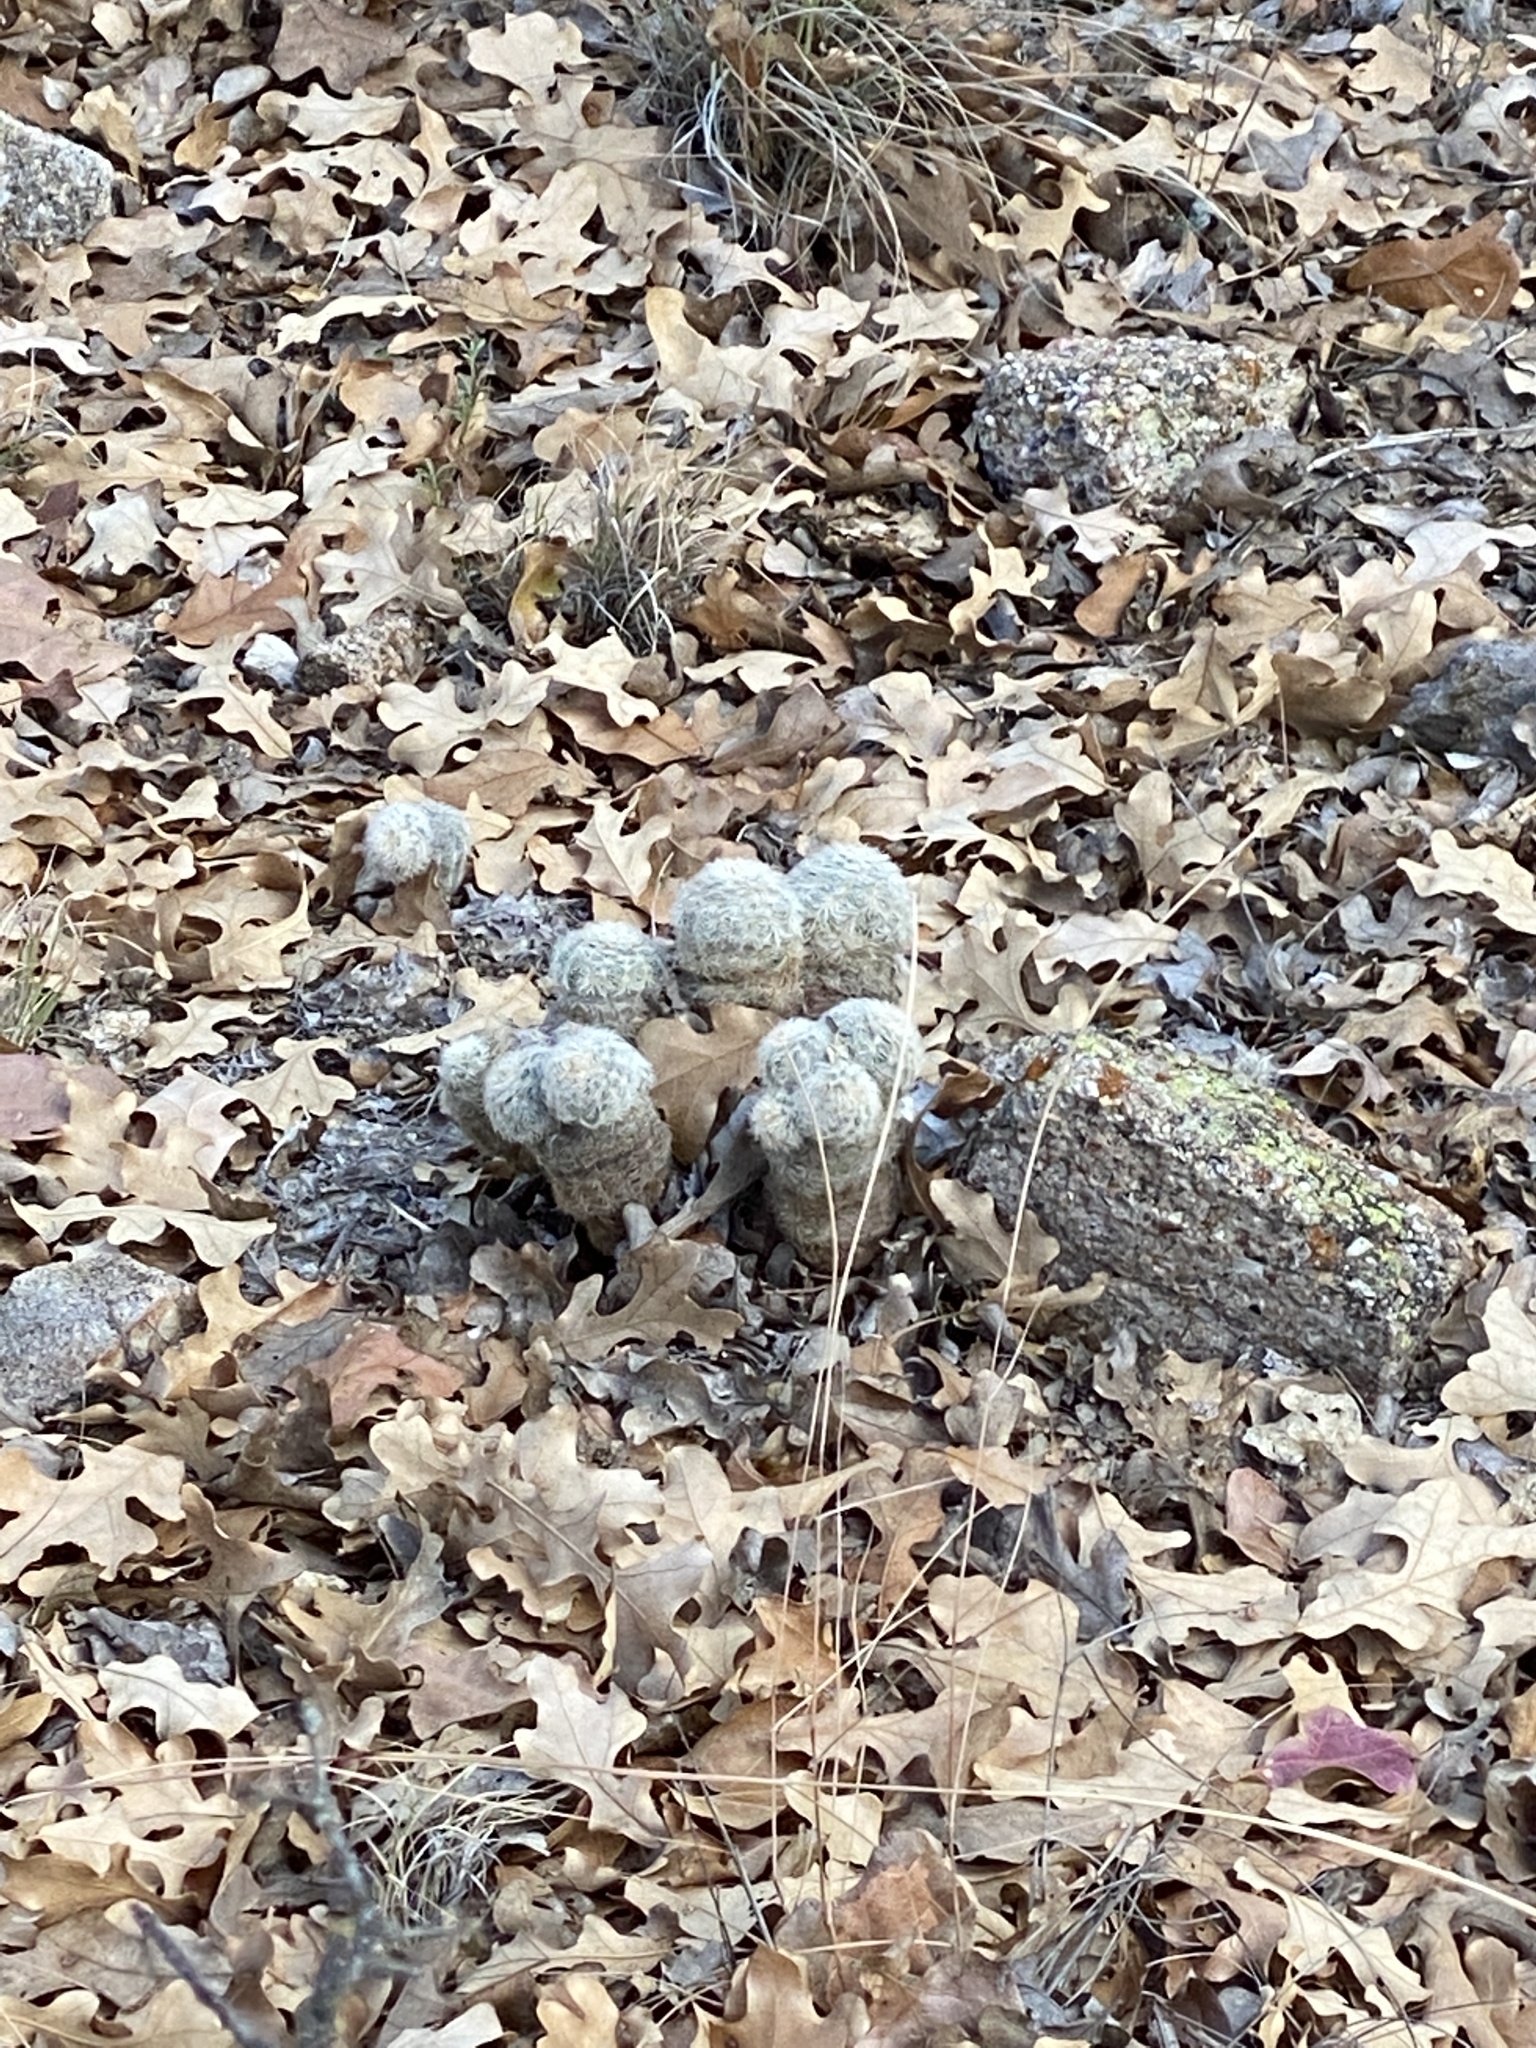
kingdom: Plantae
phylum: Tracheophyta
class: Magnoliopsida
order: Caryophyllales
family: Cactaceae
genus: Echinocereus
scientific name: Echinocereus reichenbachii
